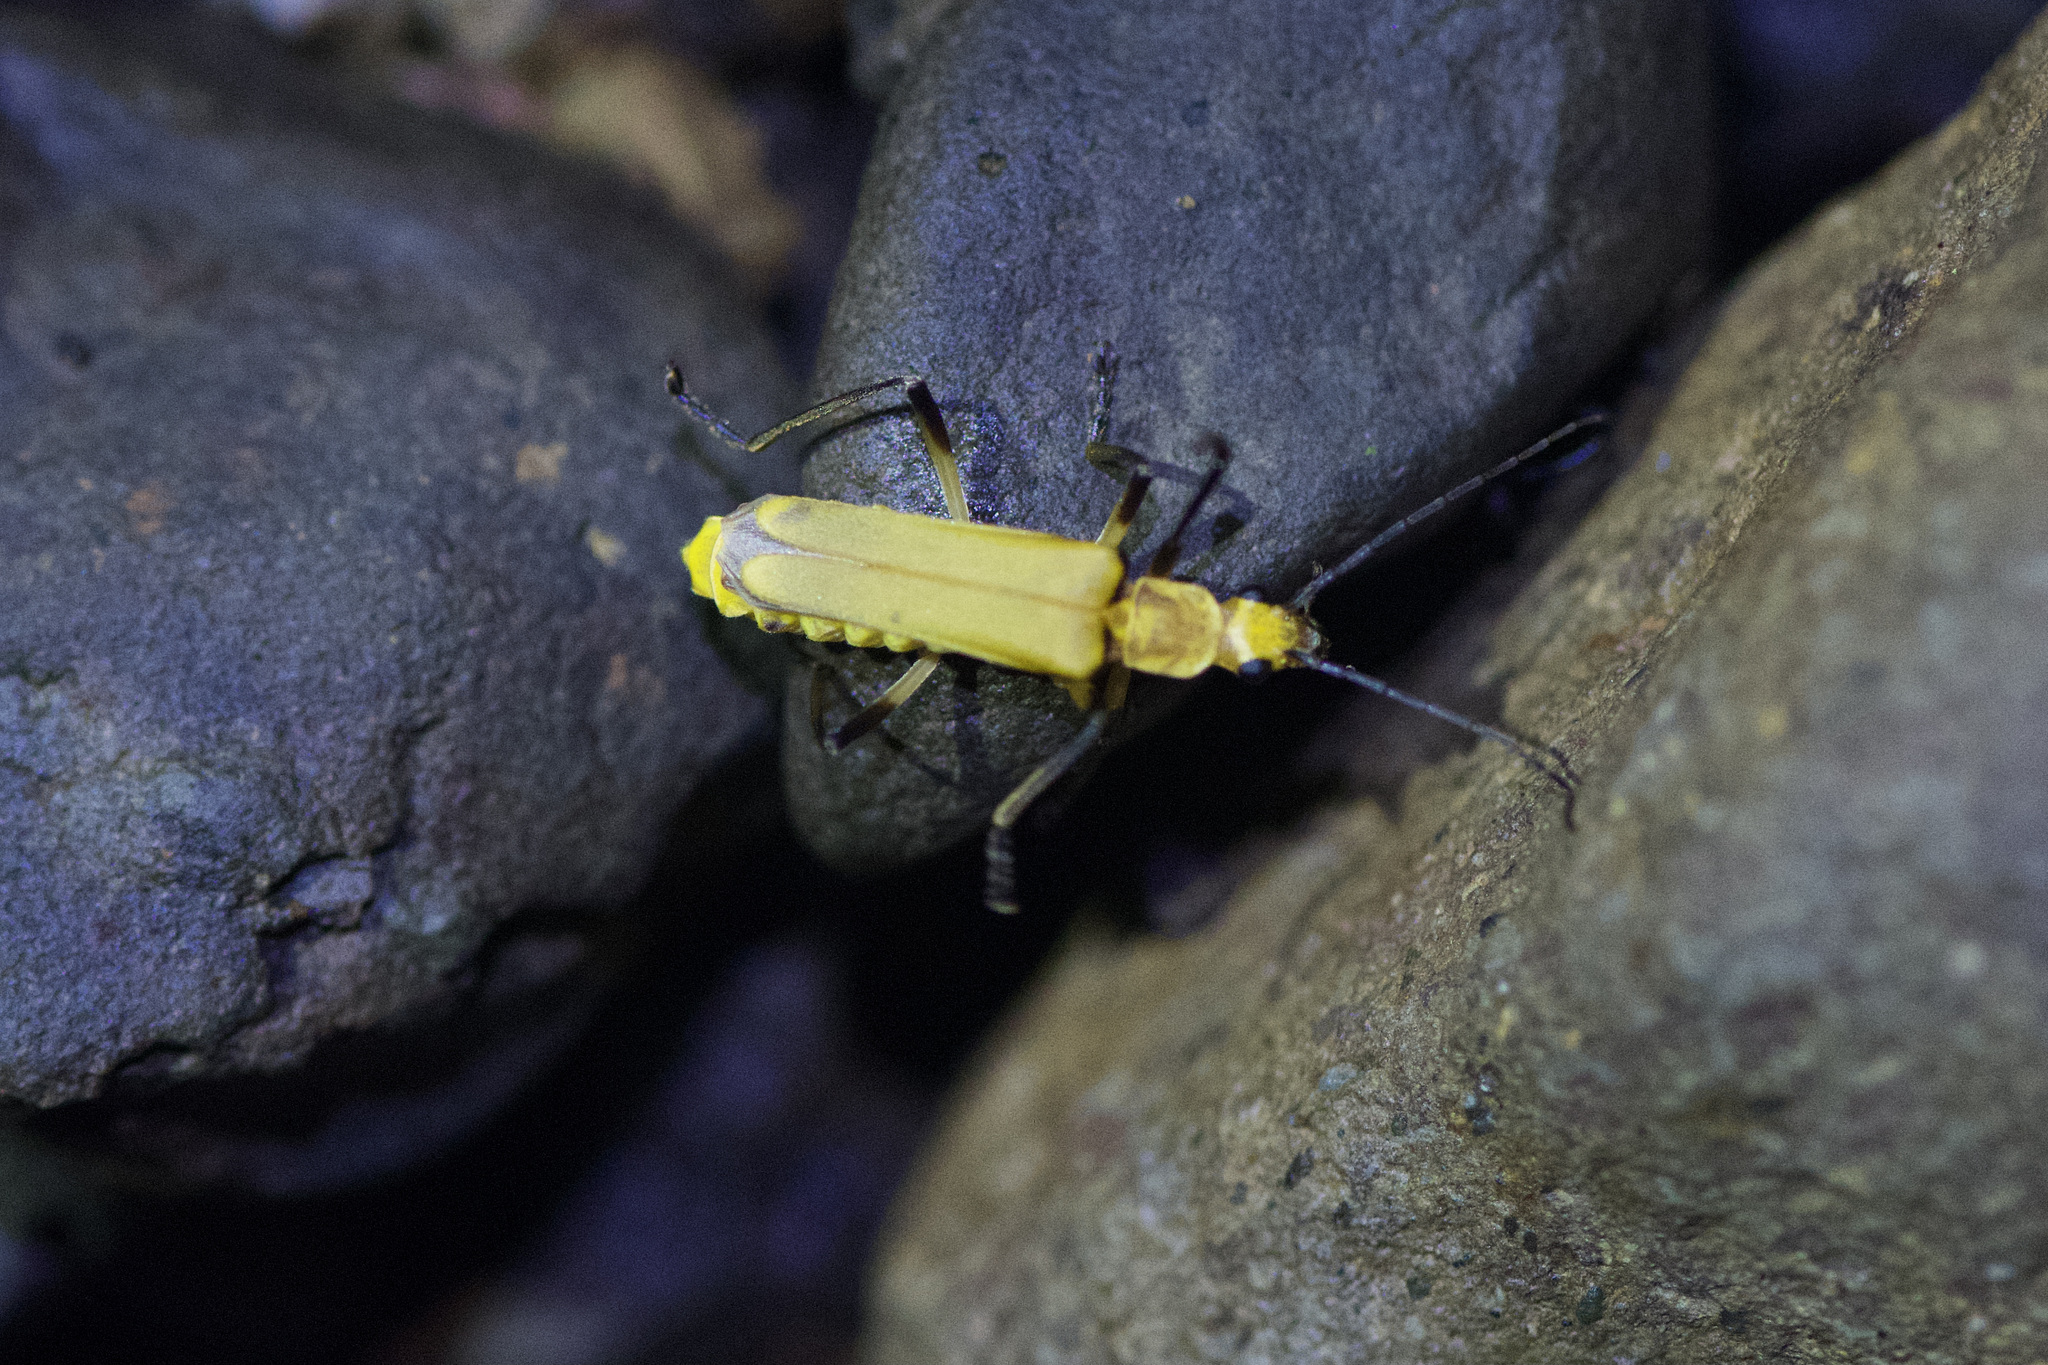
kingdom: Animalia
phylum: Arthropoda
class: Insecta
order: Coleoptera
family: Cantharidae
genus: Chauliognathus
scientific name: Chauliognathus
